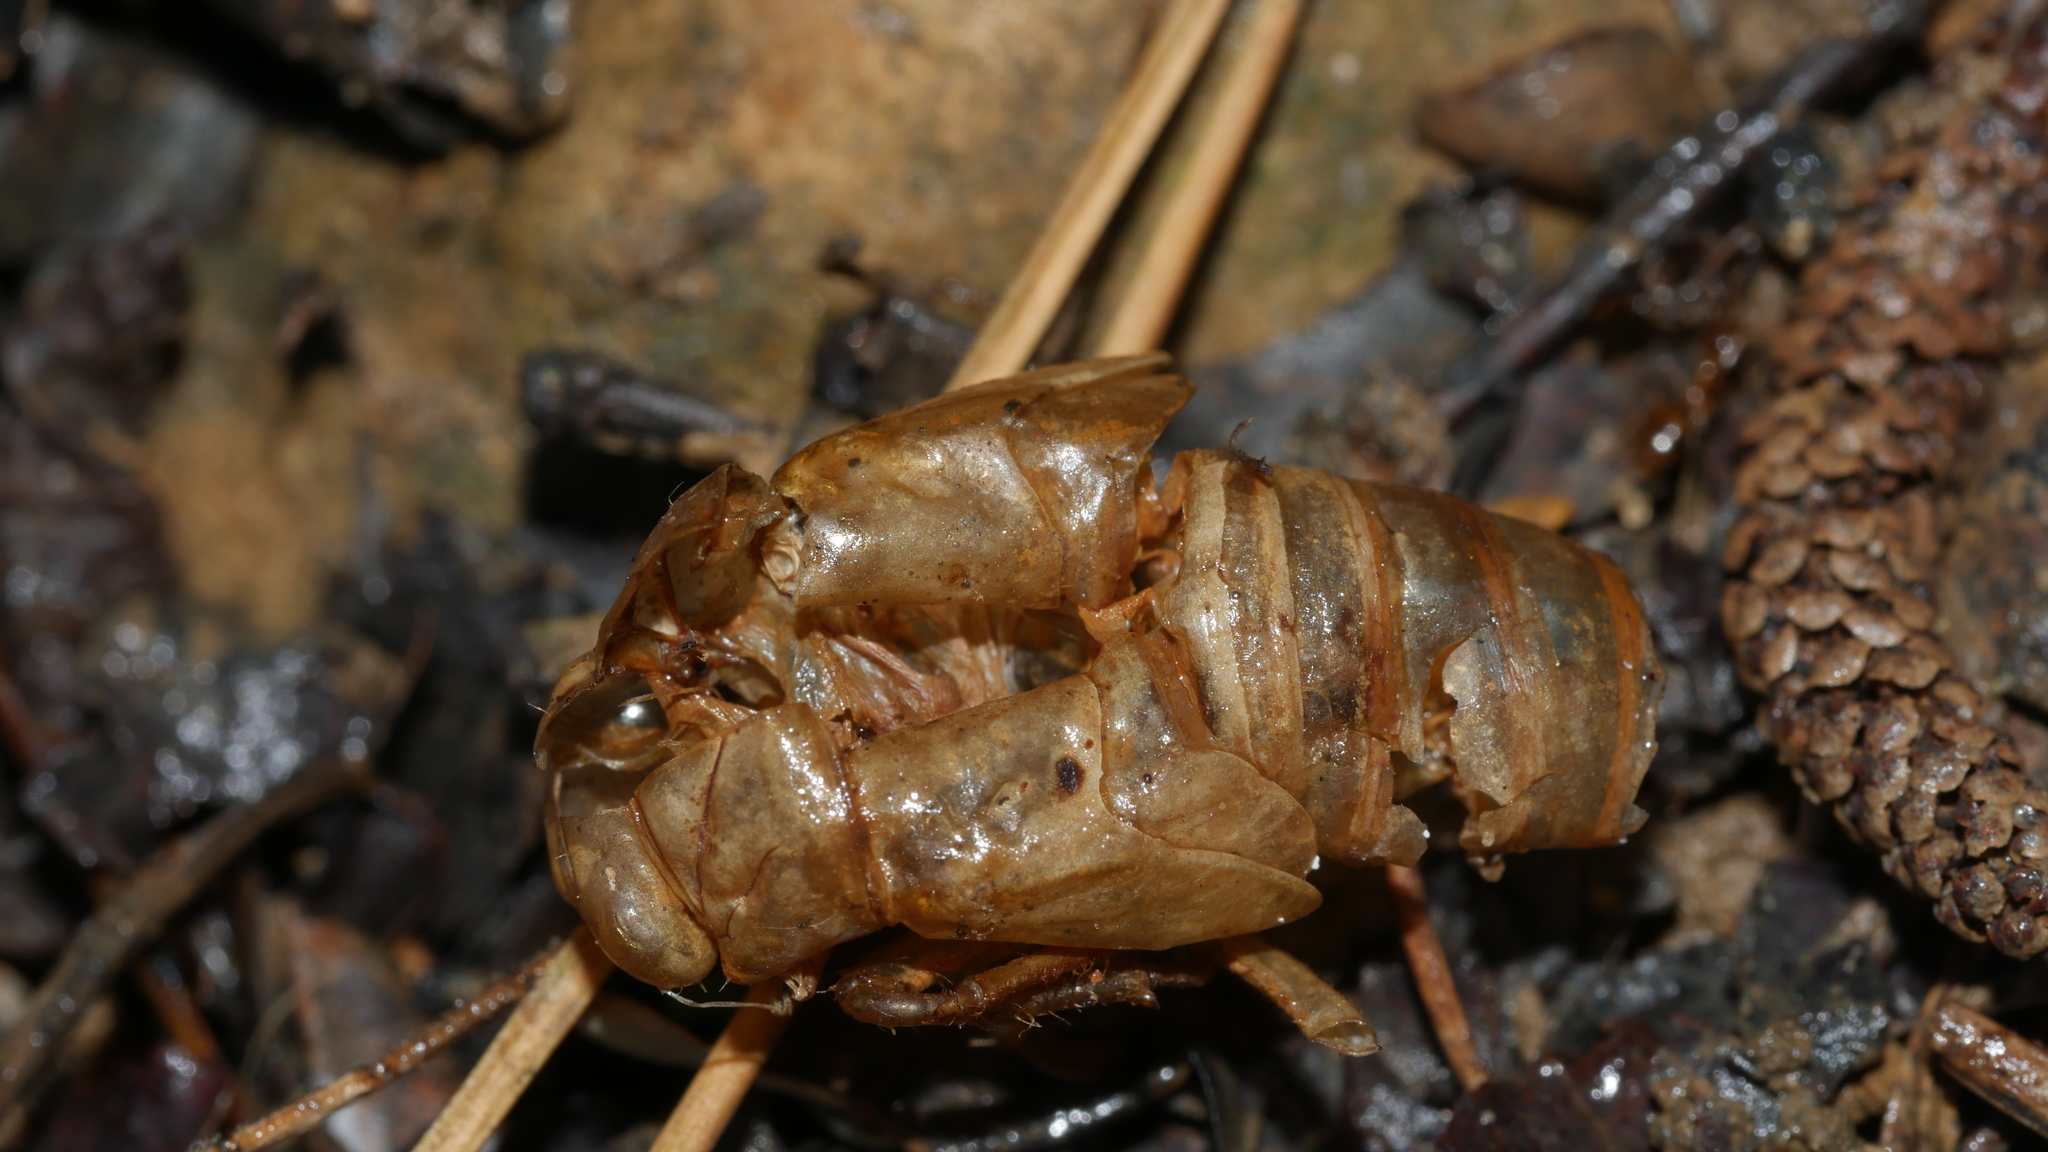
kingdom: Animalia
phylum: Arthropoda
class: Insecta
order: Hemiptera
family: Cicadidae
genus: Magicicada
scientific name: Magicicada
